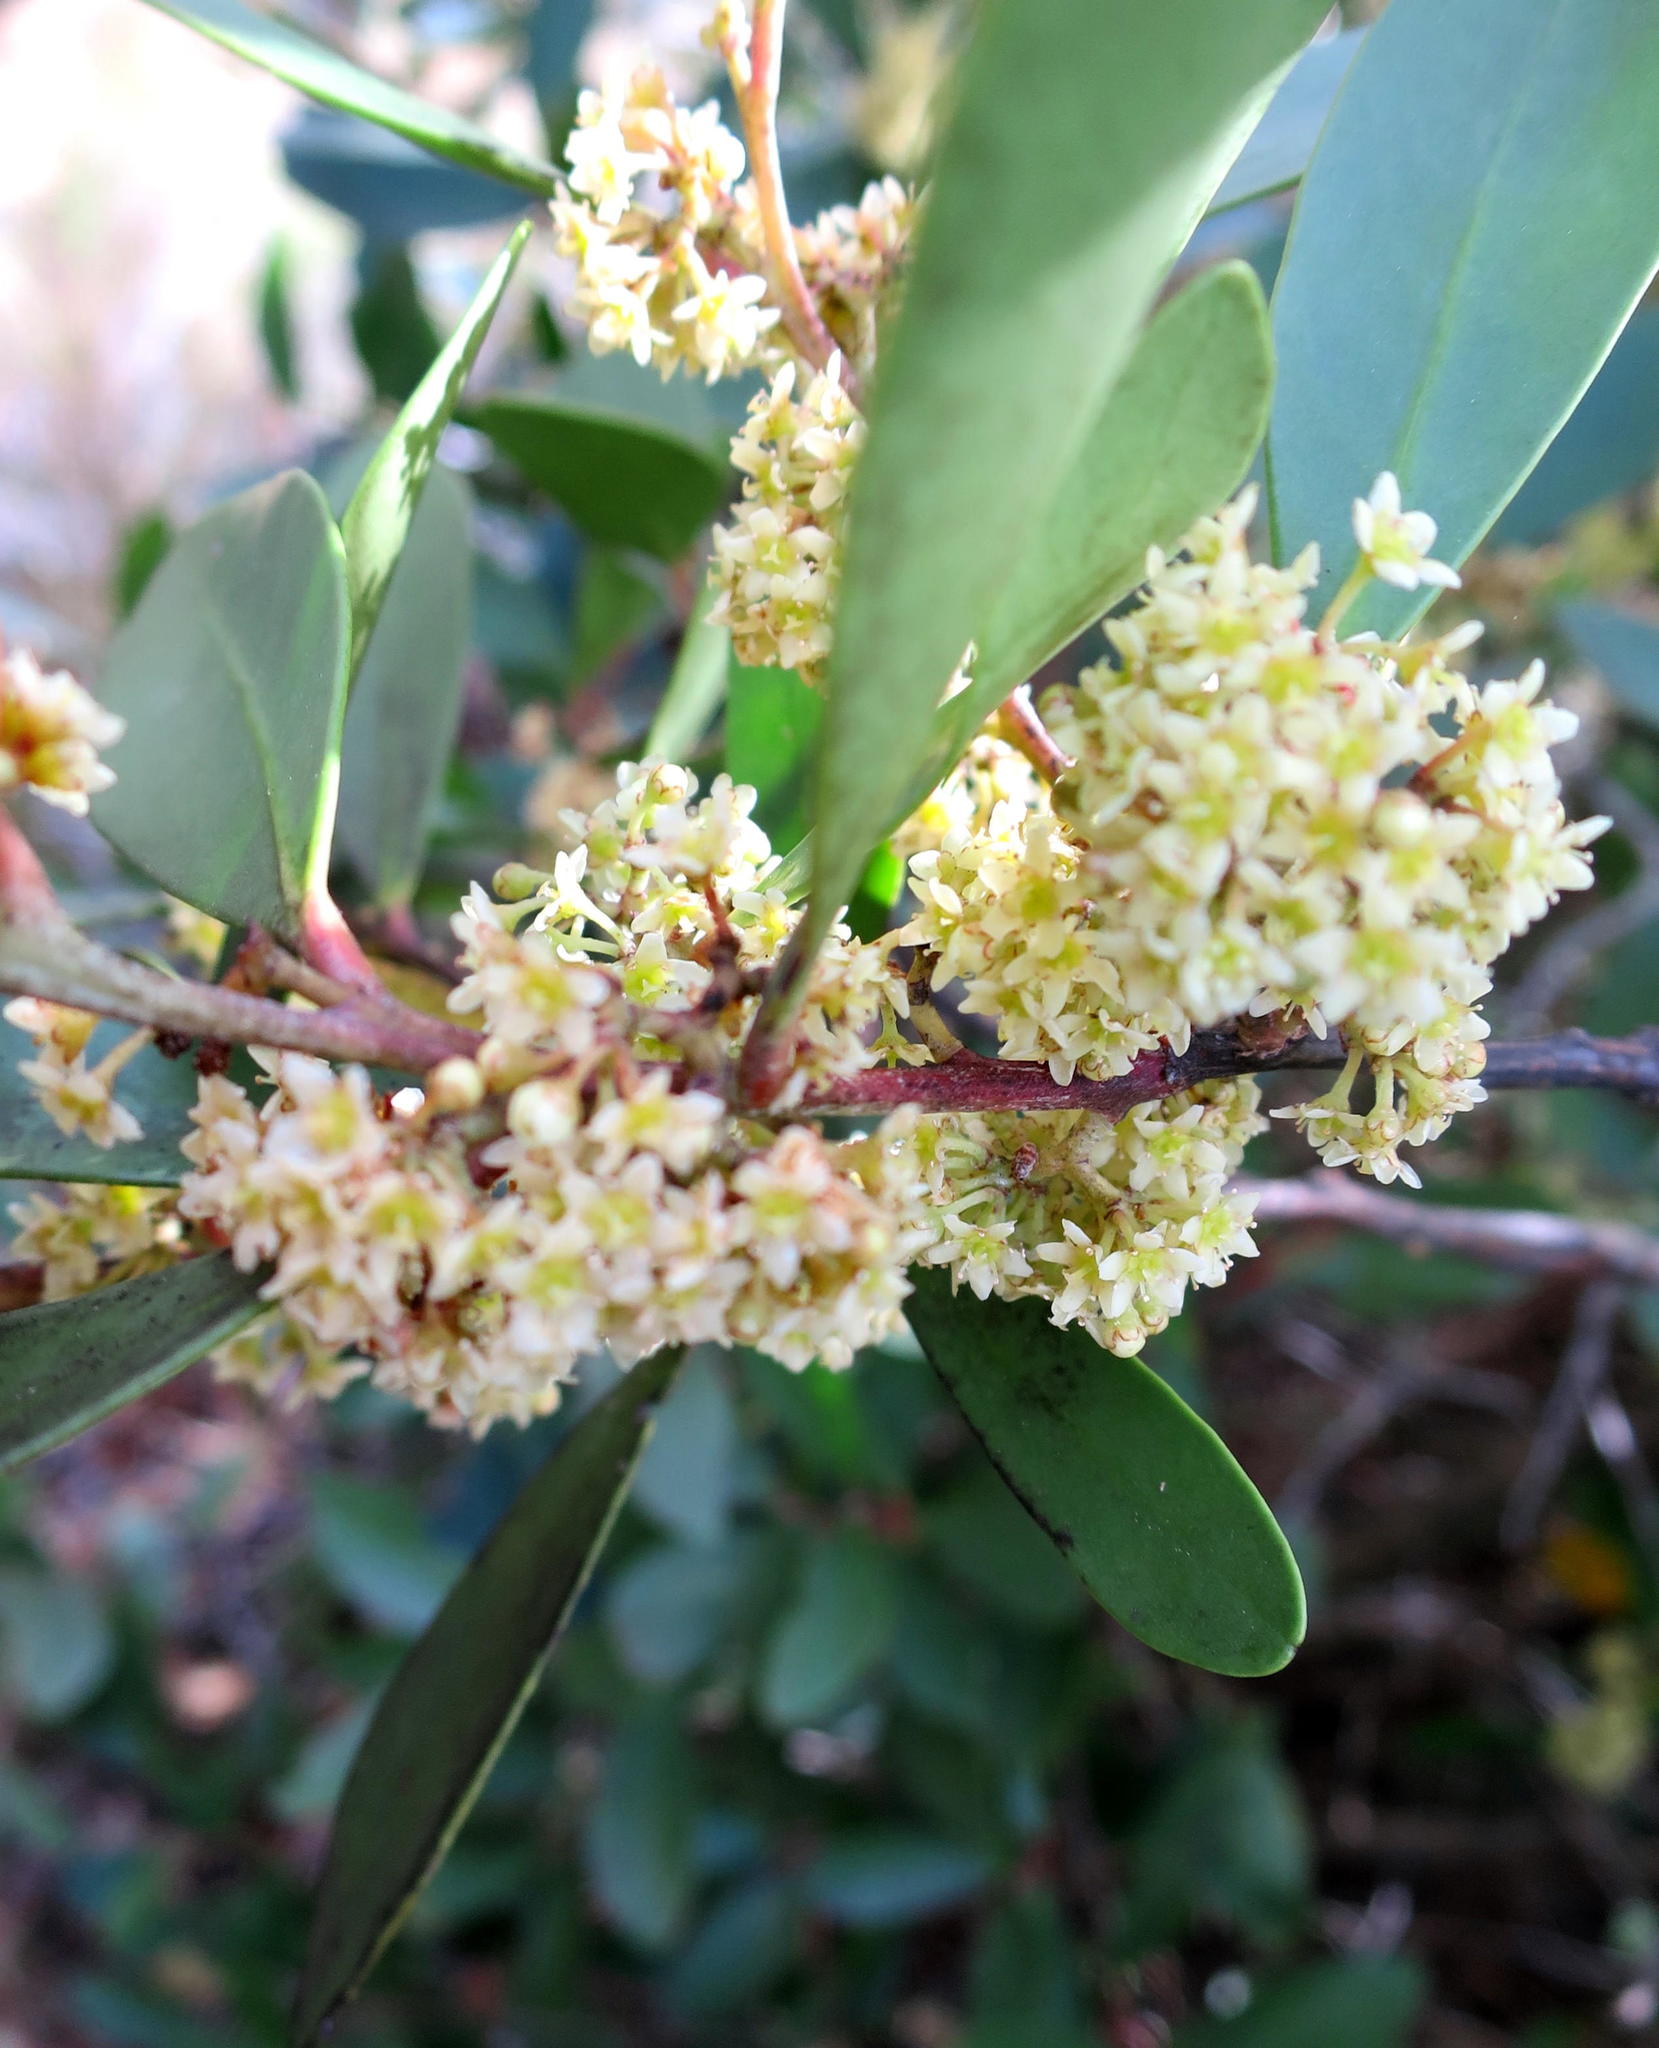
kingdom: Plantae
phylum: Tracheophyta
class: Magnoliopsida
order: Celastrales
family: Celastraceae
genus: Pterocelastrus
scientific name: Pterocelastrus tricuspidatus
